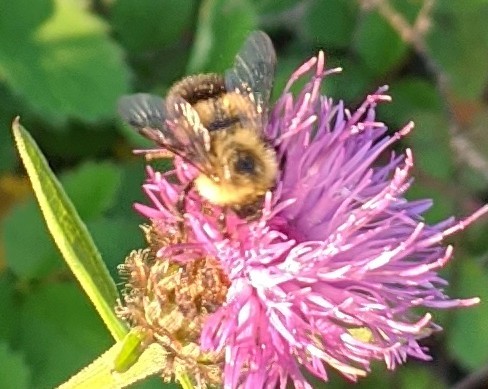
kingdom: Animalia
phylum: Arthropoda
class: Insecta
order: Hymenoptera
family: Apidae
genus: Pyrobombus
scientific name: Pyrobombus
